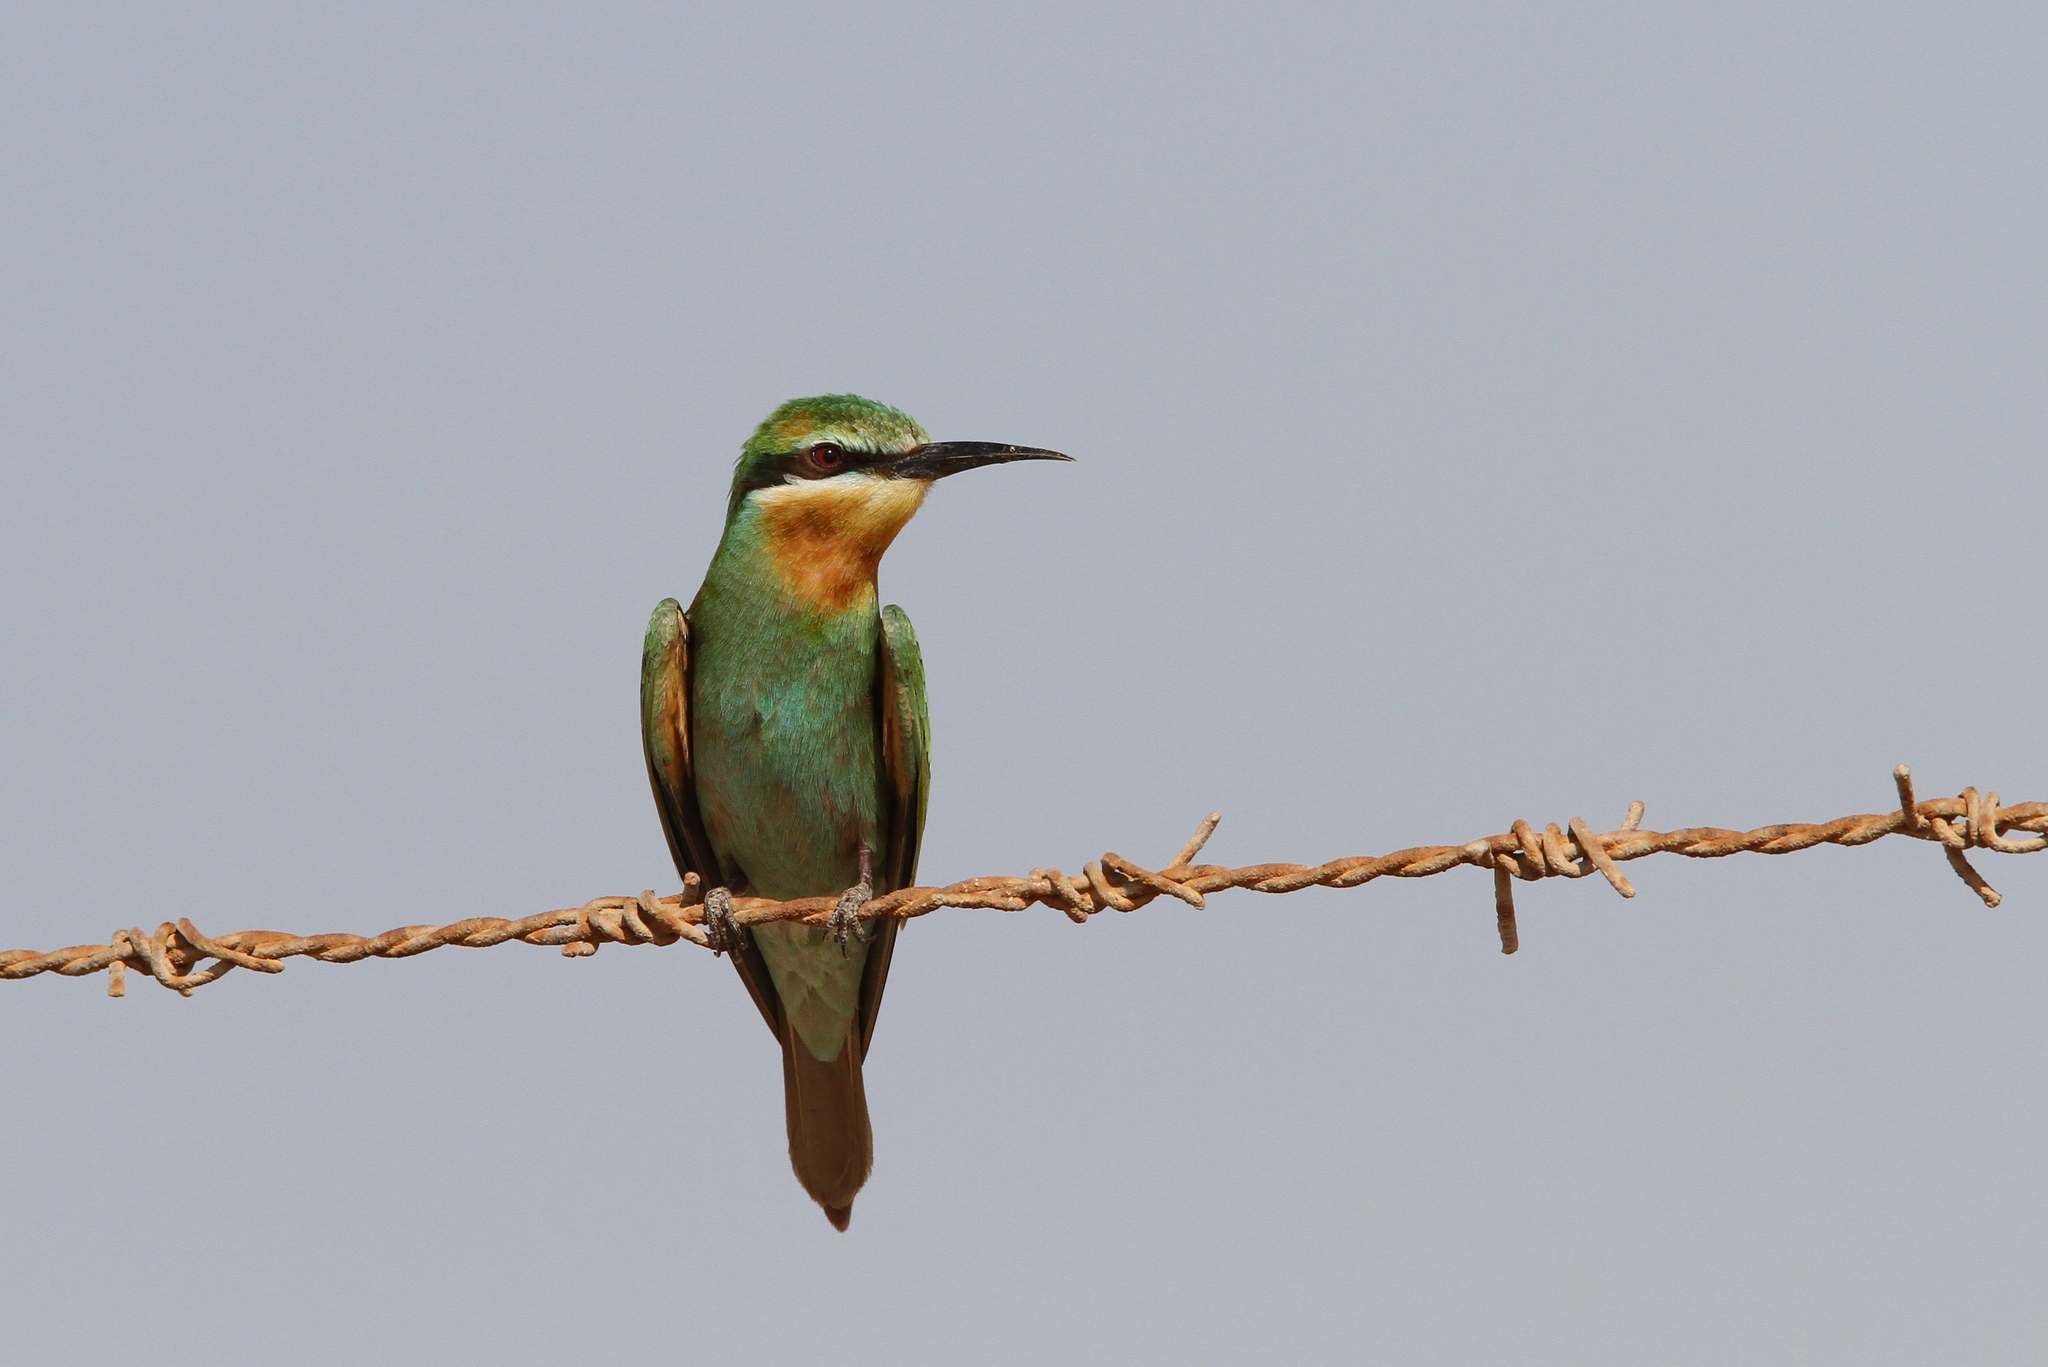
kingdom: Animalia
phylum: Chordata
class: Aves
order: Coraciiformes
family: Meropidae
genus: Merops
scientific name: Merops persicus
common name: Blue-cheeked bee-eater
